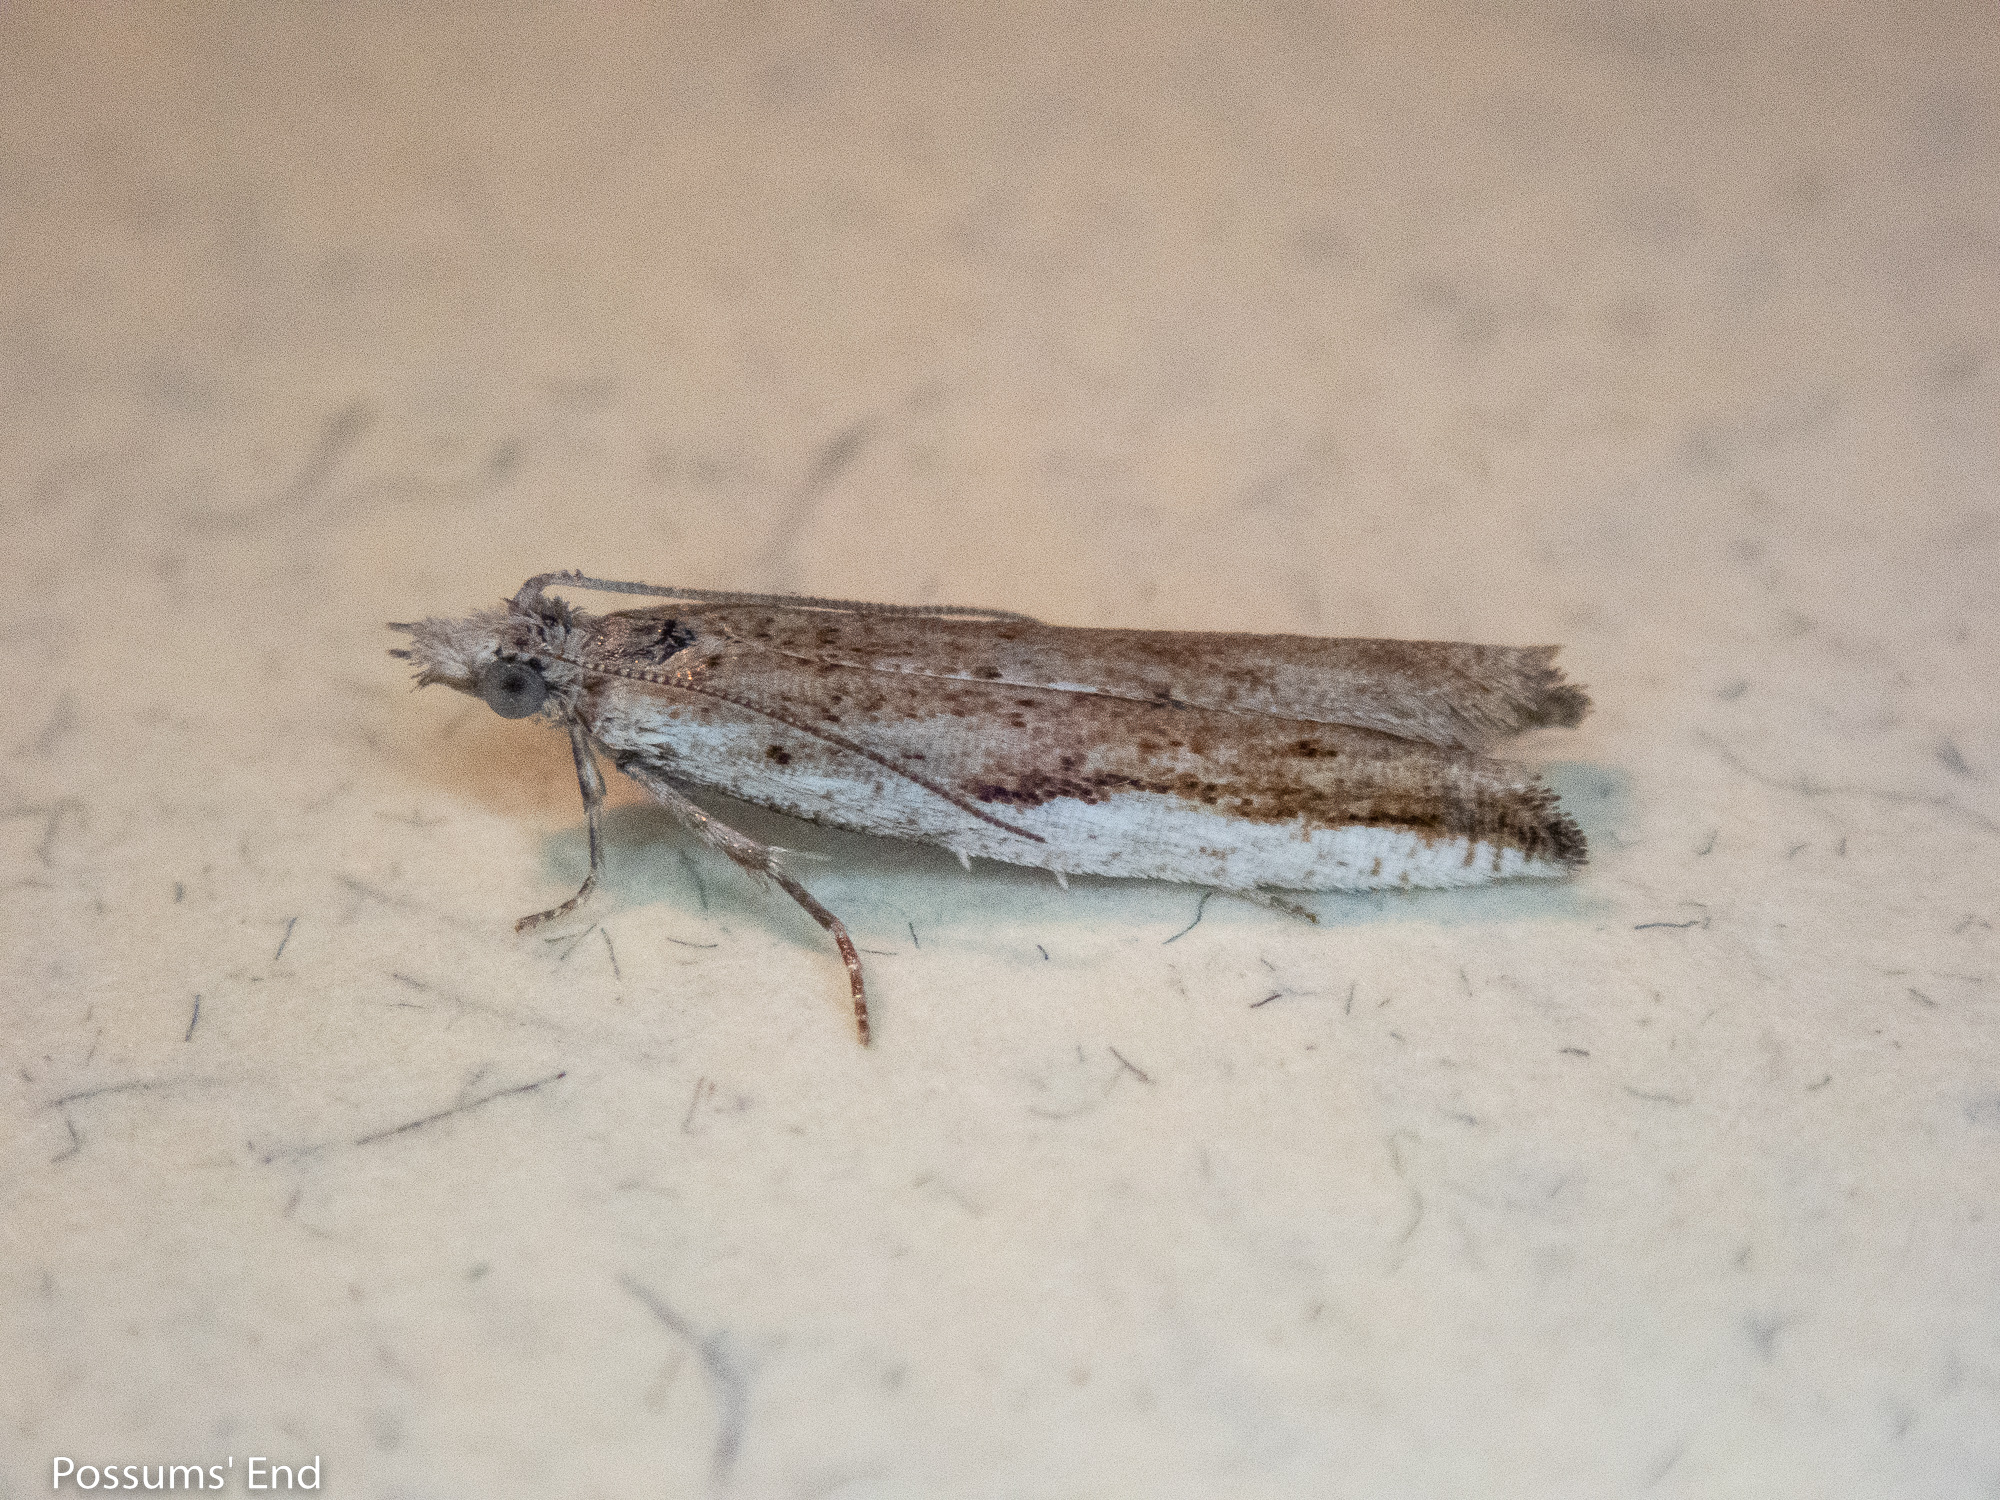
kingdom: Animalia
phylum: Arthropoda
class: Insecta
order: Lepidoptera
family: Tortricidae
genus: Holocola
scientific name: Holocola
